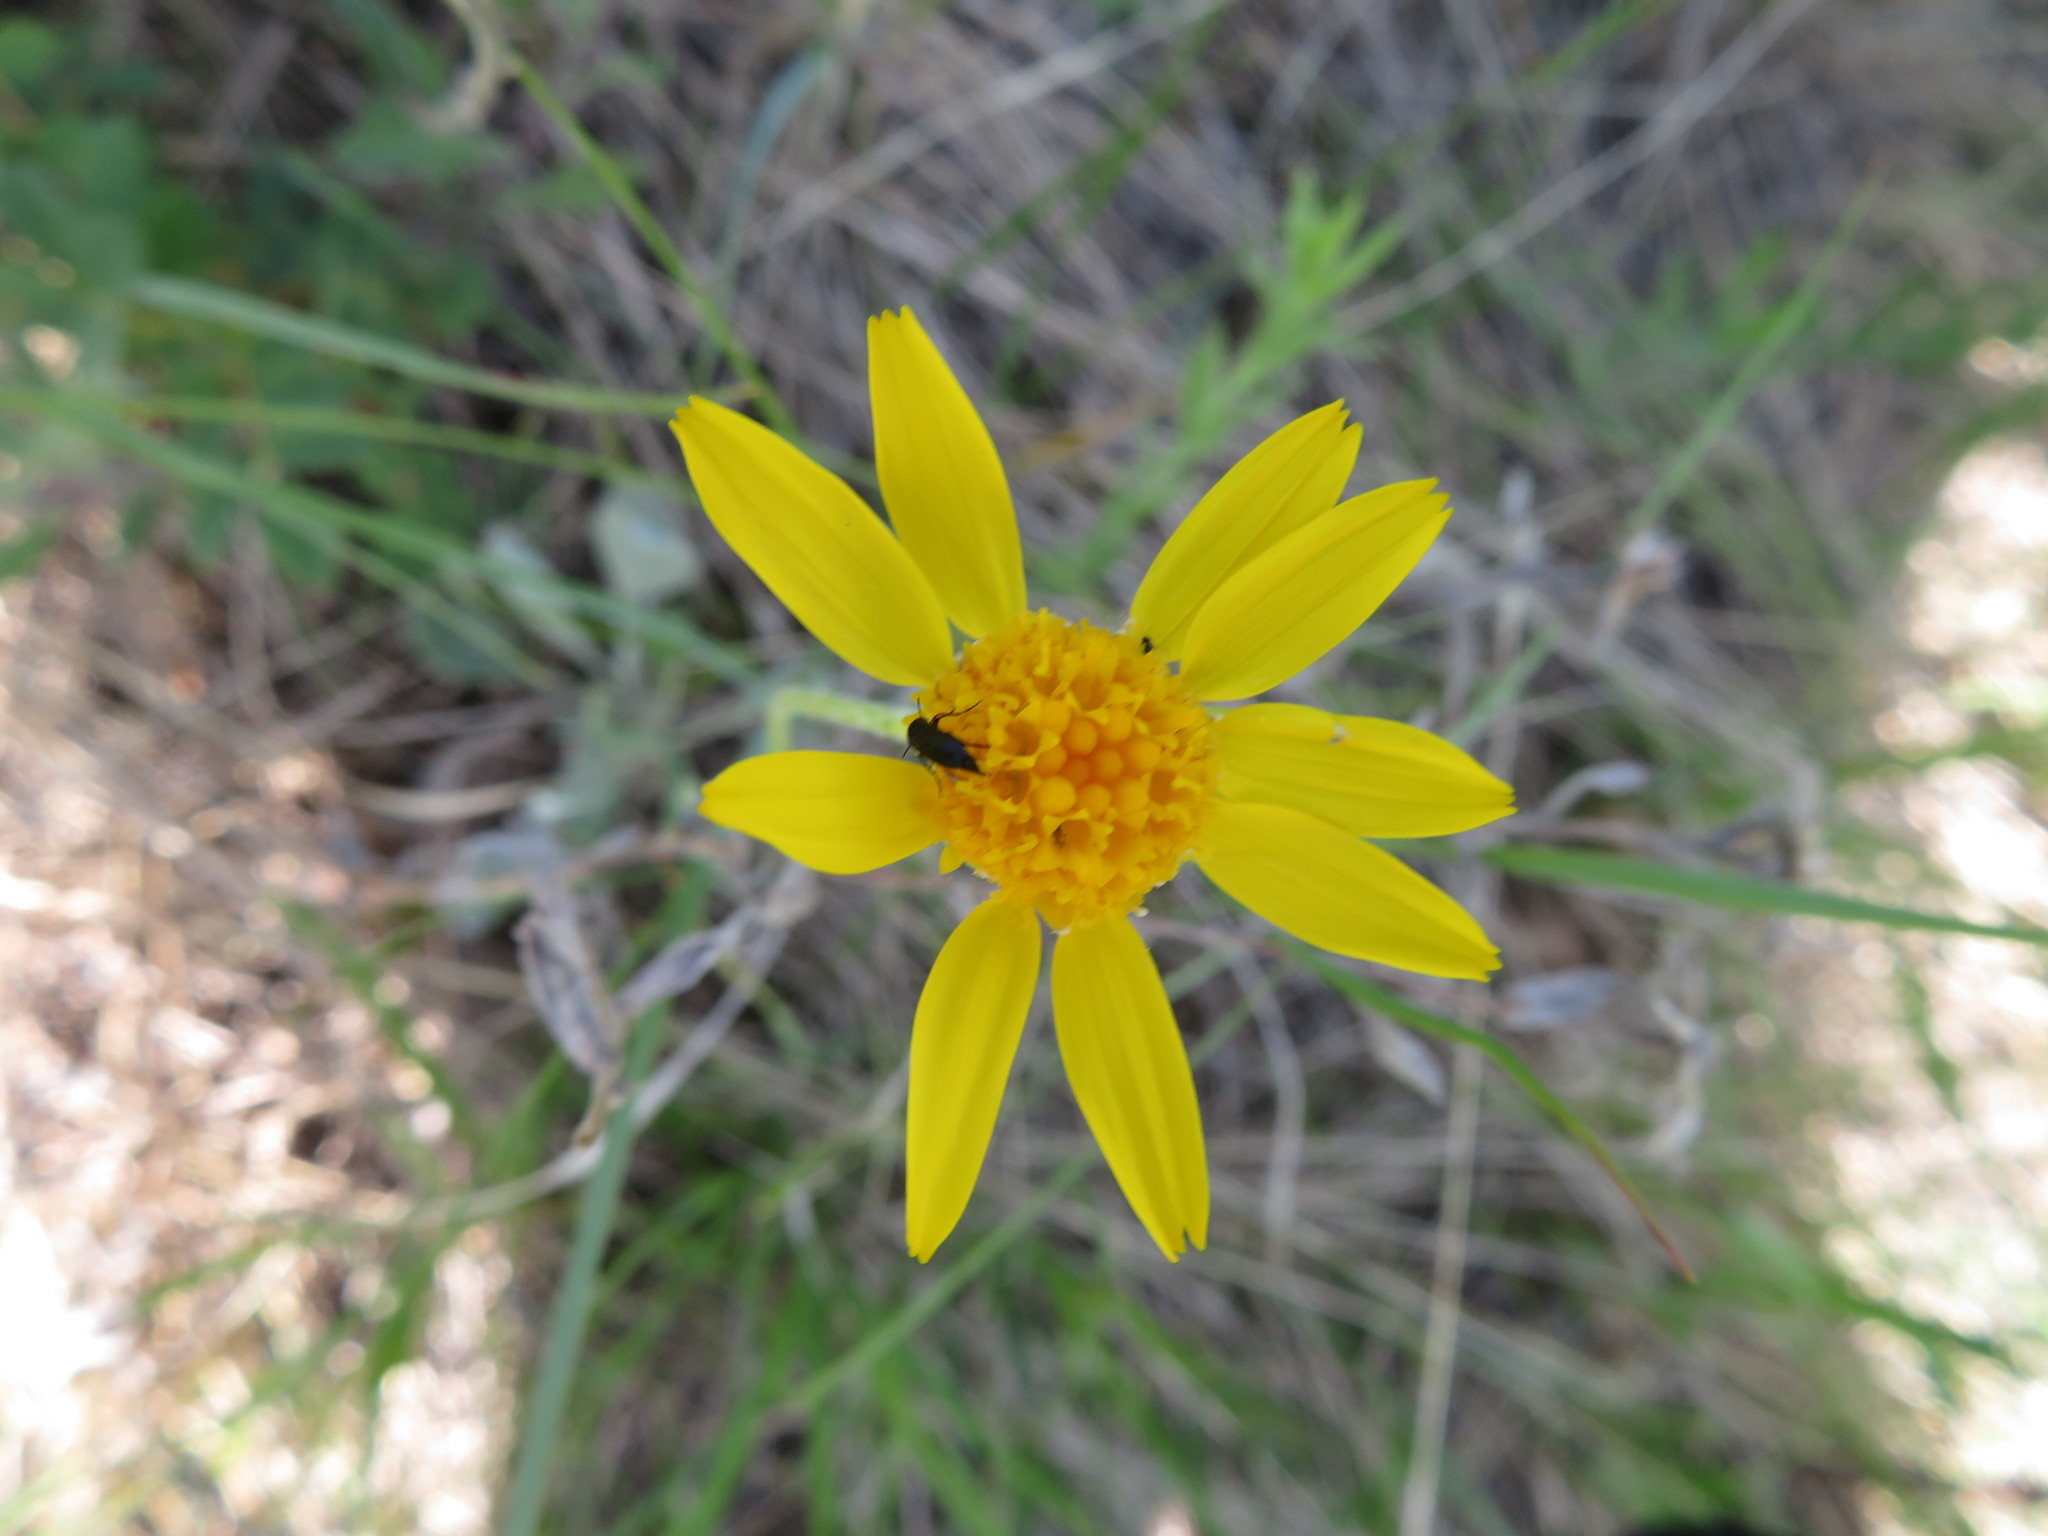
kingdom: Plantae
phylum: Tracheophyta
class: Magnoliopsida
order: Asterales
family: Asteraceae
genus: Packera
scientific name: Packera cana
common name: Woolly groundsel
